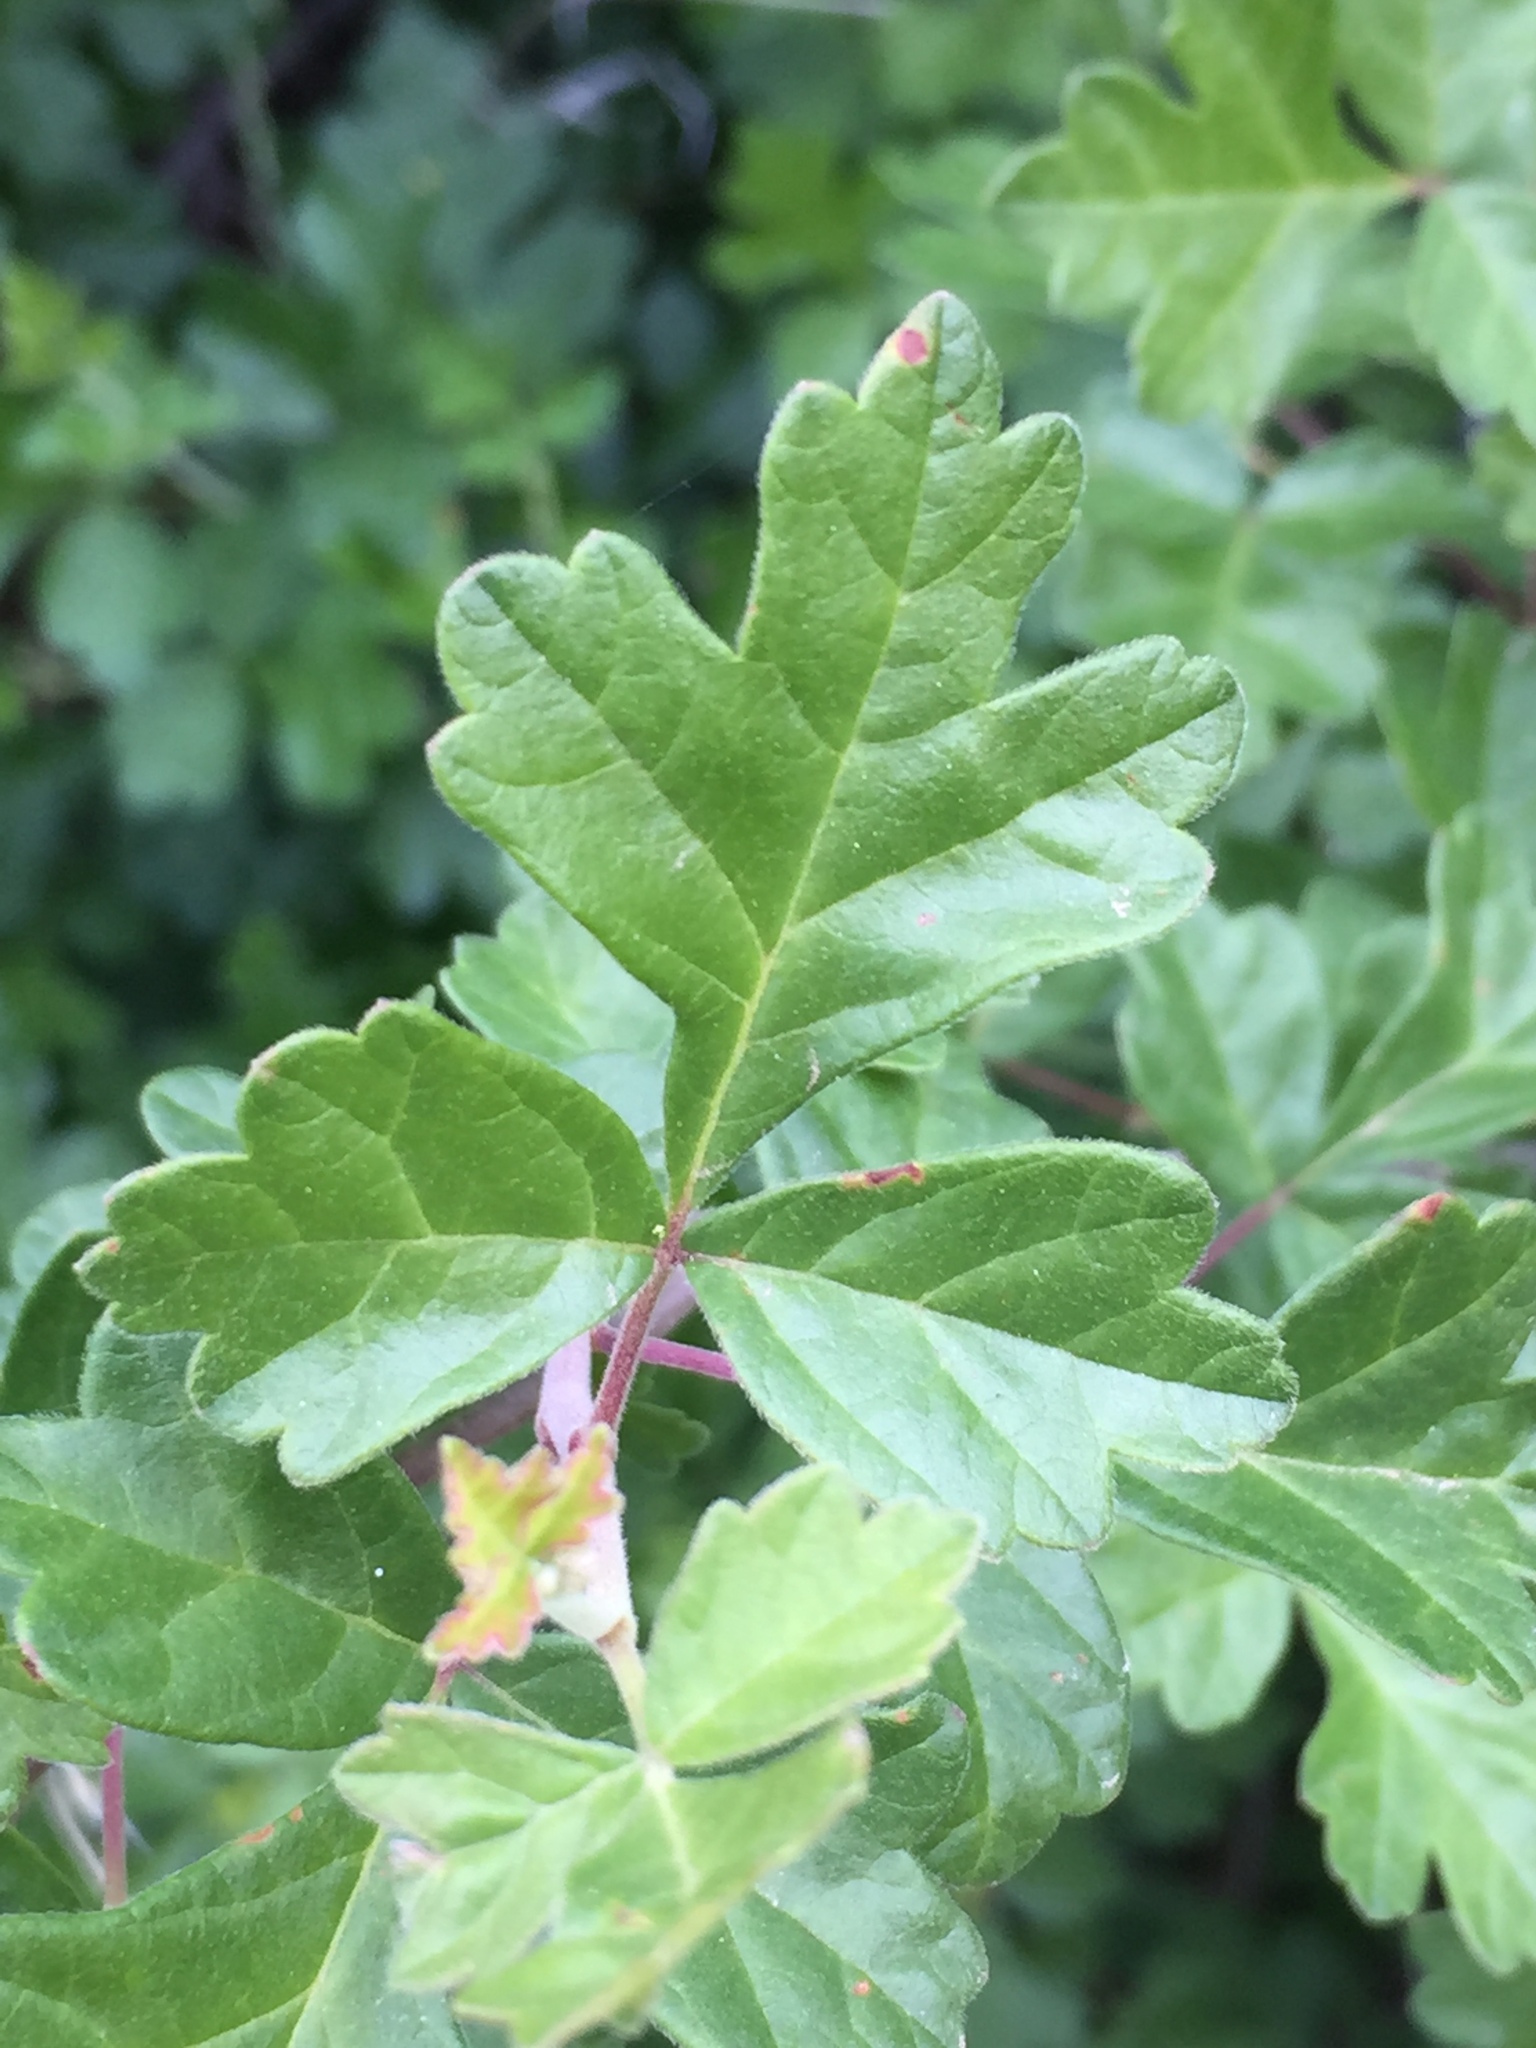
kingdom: Plantae
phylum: Tracheophyta
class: Magnoliopsida
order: Sapindales
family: Anacardiaceae
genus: Rhus
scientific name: Rhus aromatica
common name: Aromatic sumac
